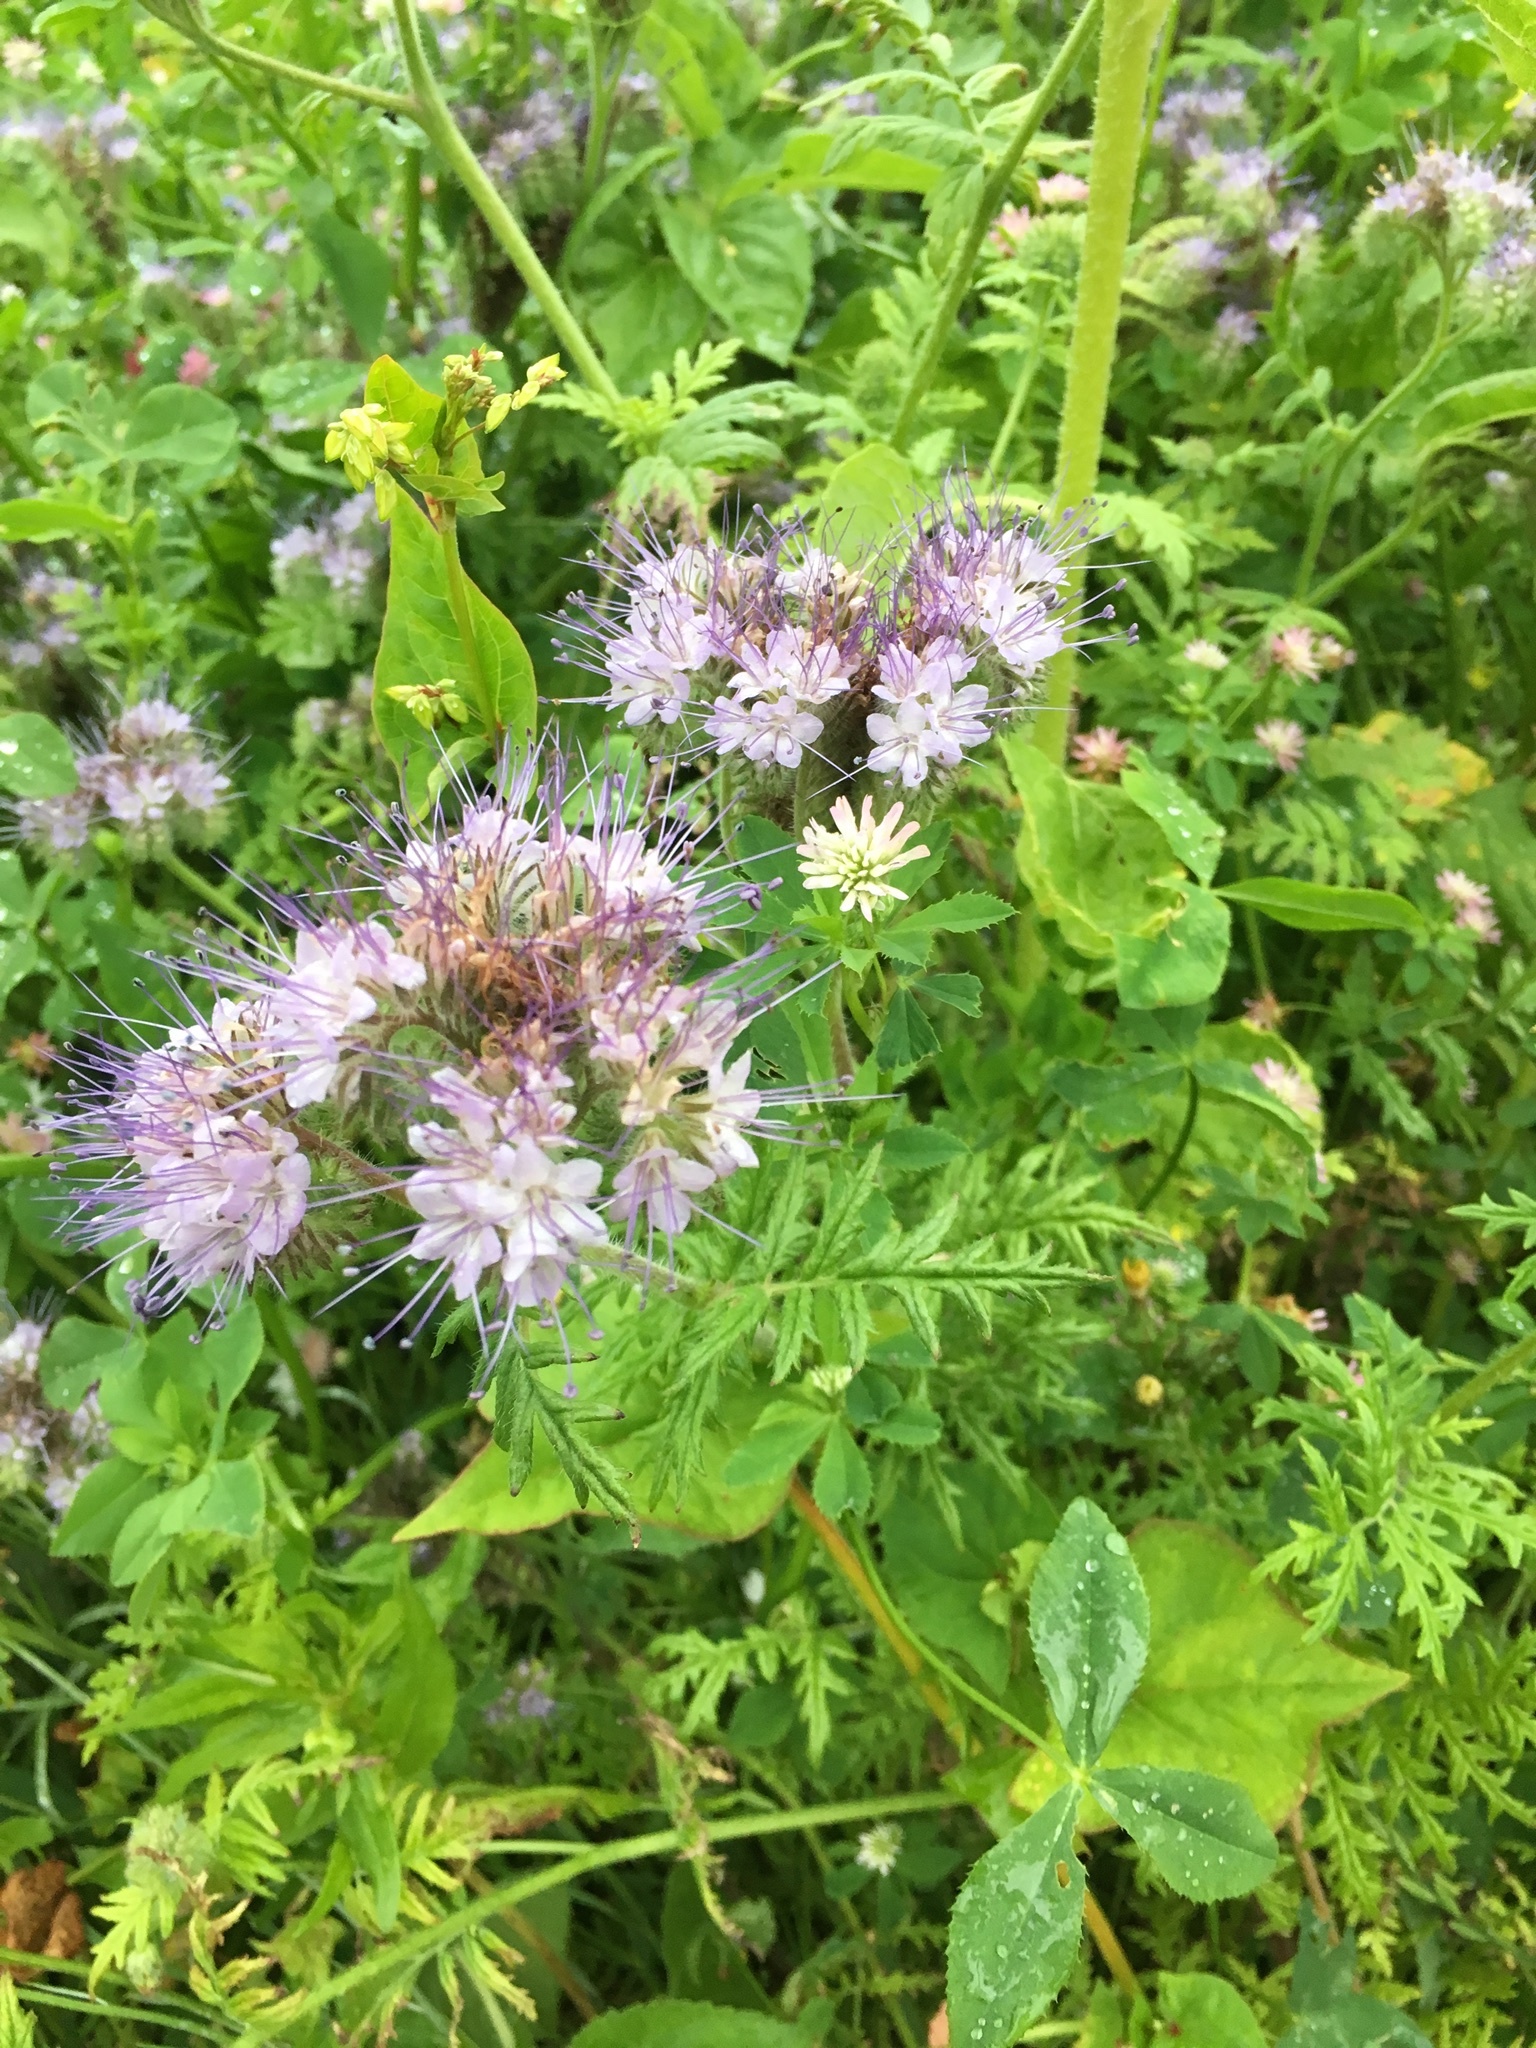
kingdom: Plantae
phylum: Tracheophyta
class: Magnoliopsida
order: Boraginales
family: Hydrophyllaceae
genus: Phacelia
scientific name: Phacelia tanacetifolia
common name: Phacelia
